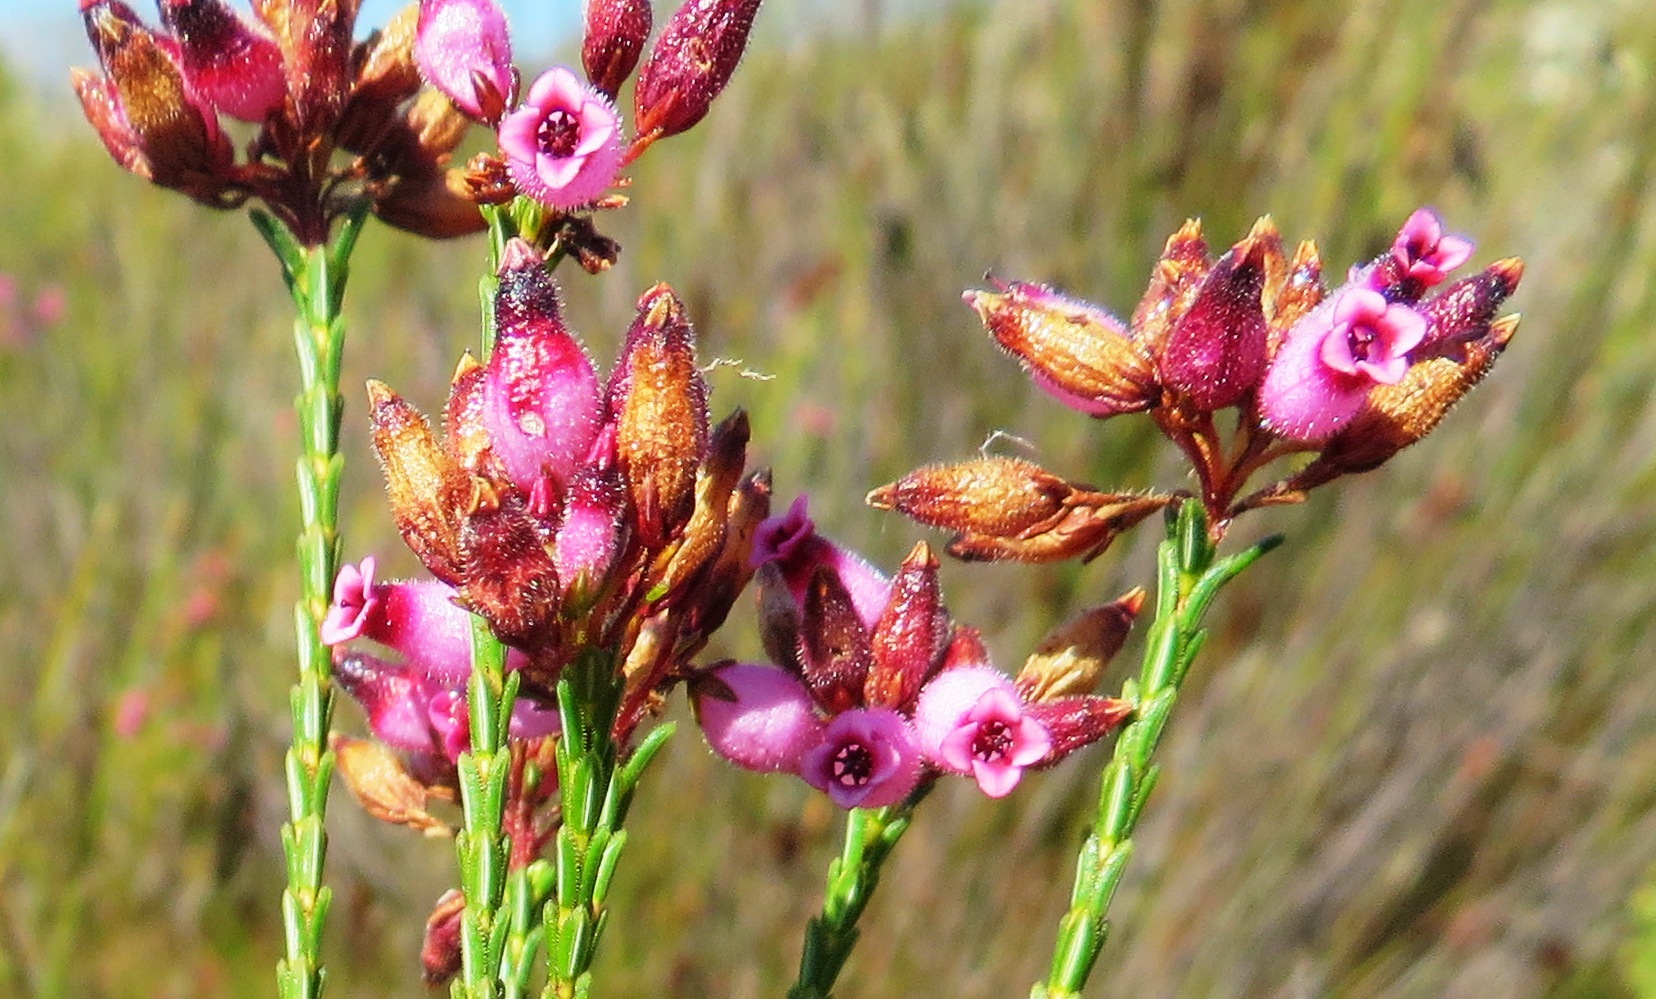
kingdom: Plantae
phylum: Tracheophyta
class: Magnoliopsida
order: Ericales
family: Ericaceae
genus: Erica
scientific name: Erica cristata
